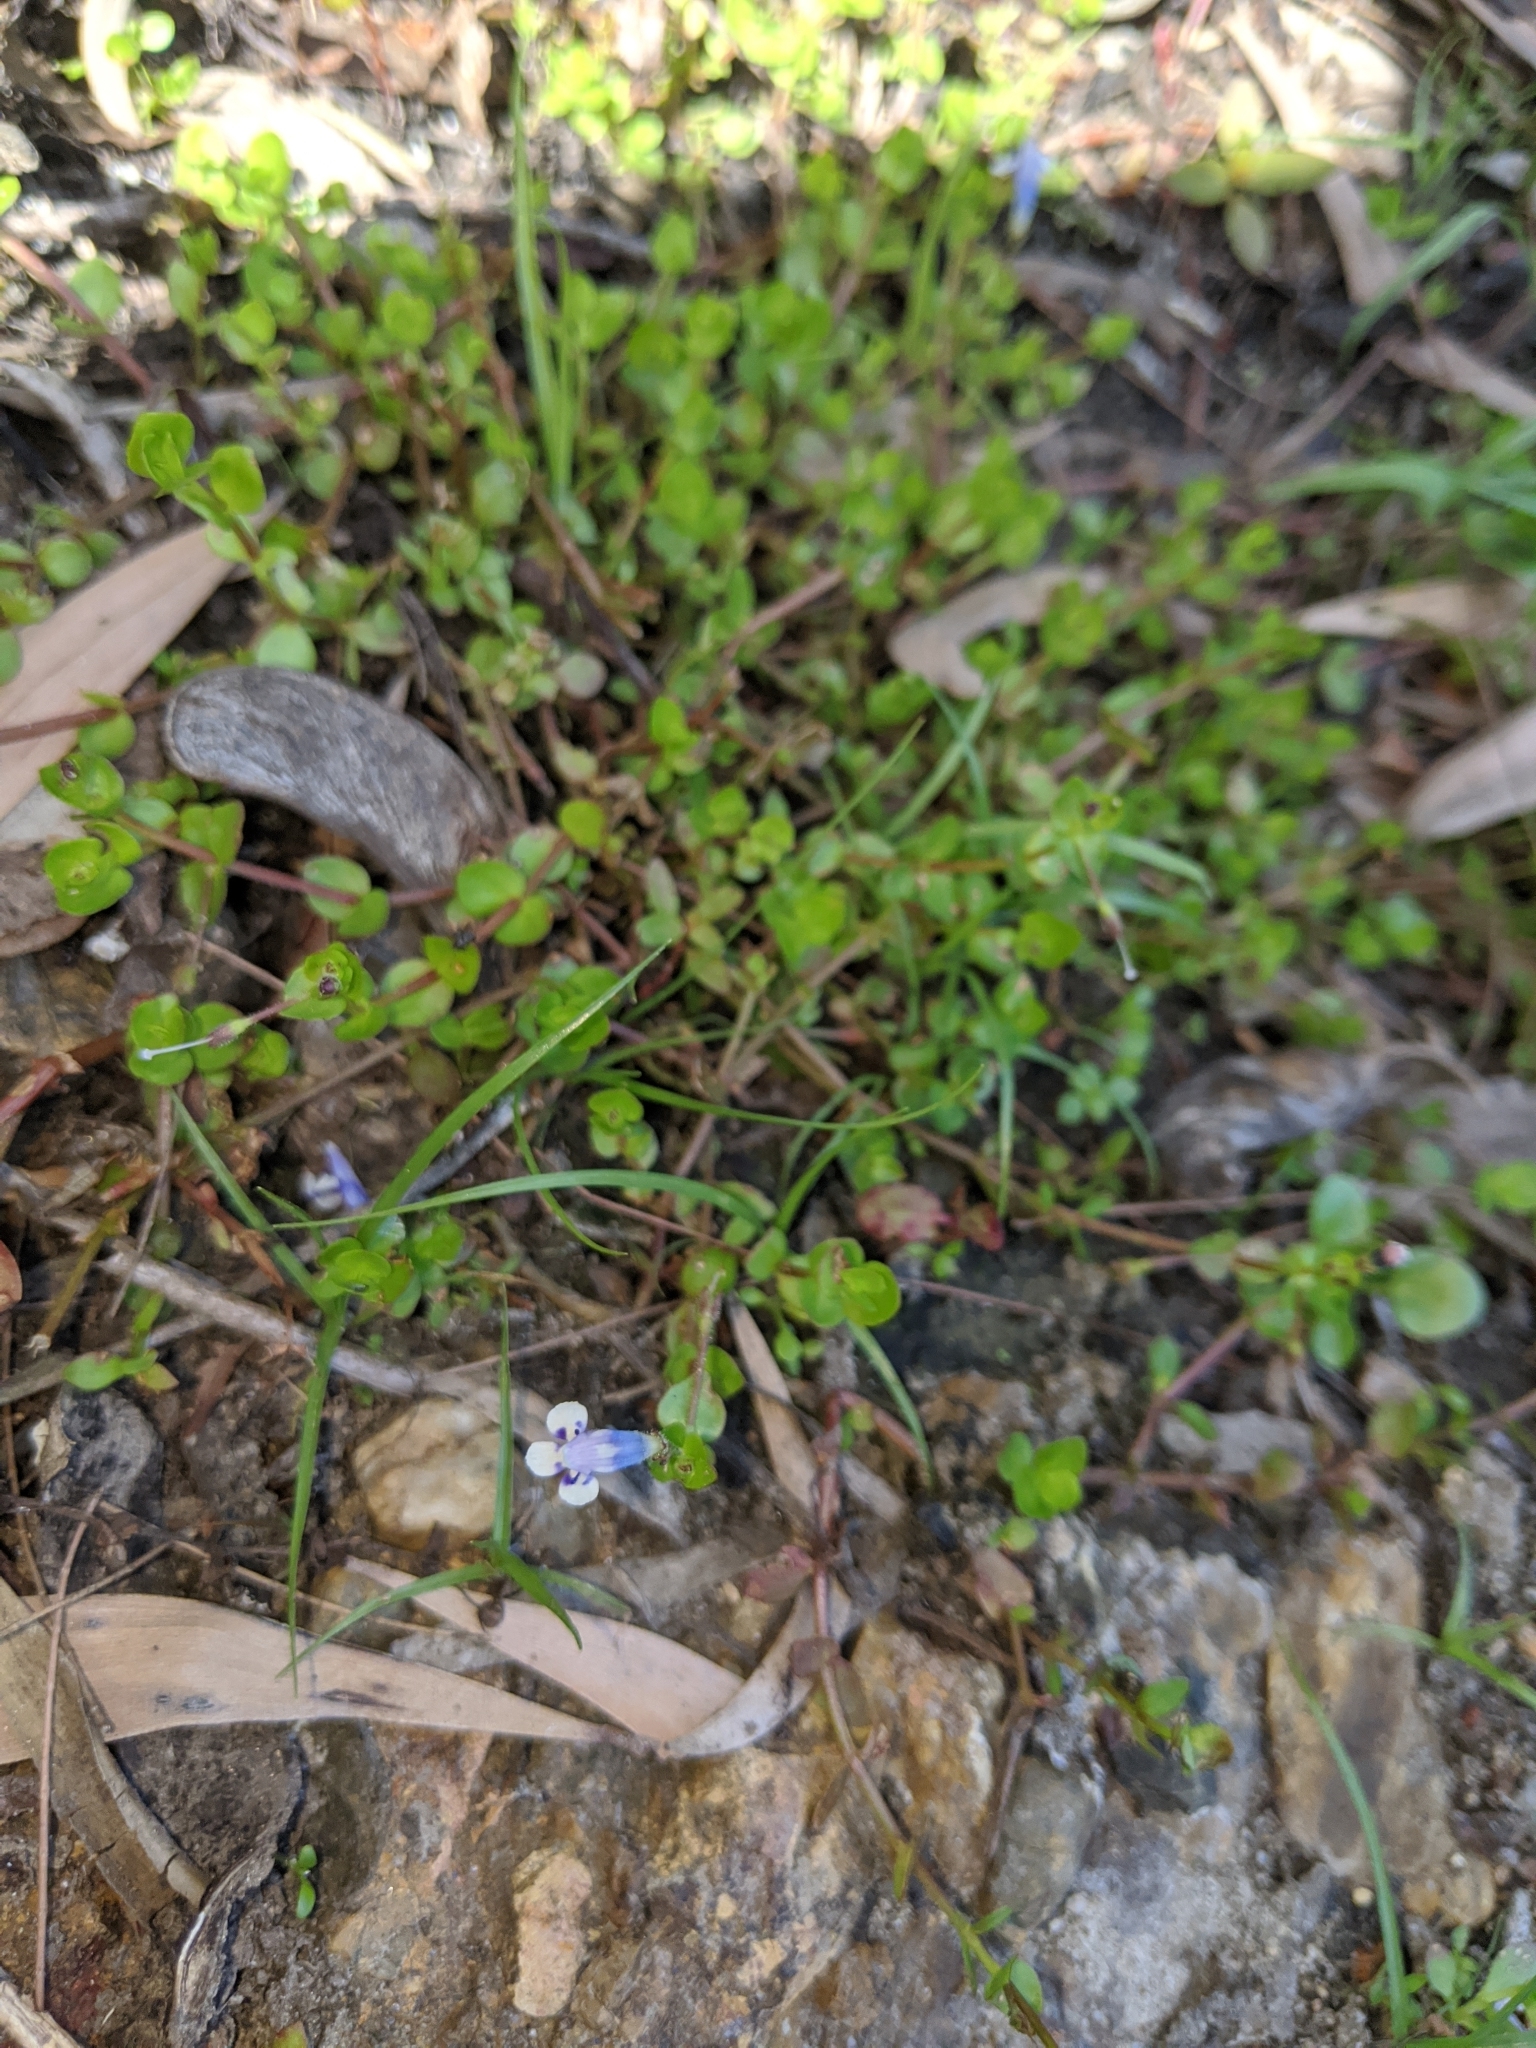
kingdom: Plantae
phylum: Tracheophyta
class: Magnoliopsida
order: Lamiales
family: Linderniaceae
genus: Lindernia
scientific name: Lindernia rotundifolia
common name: Baby’s tears
